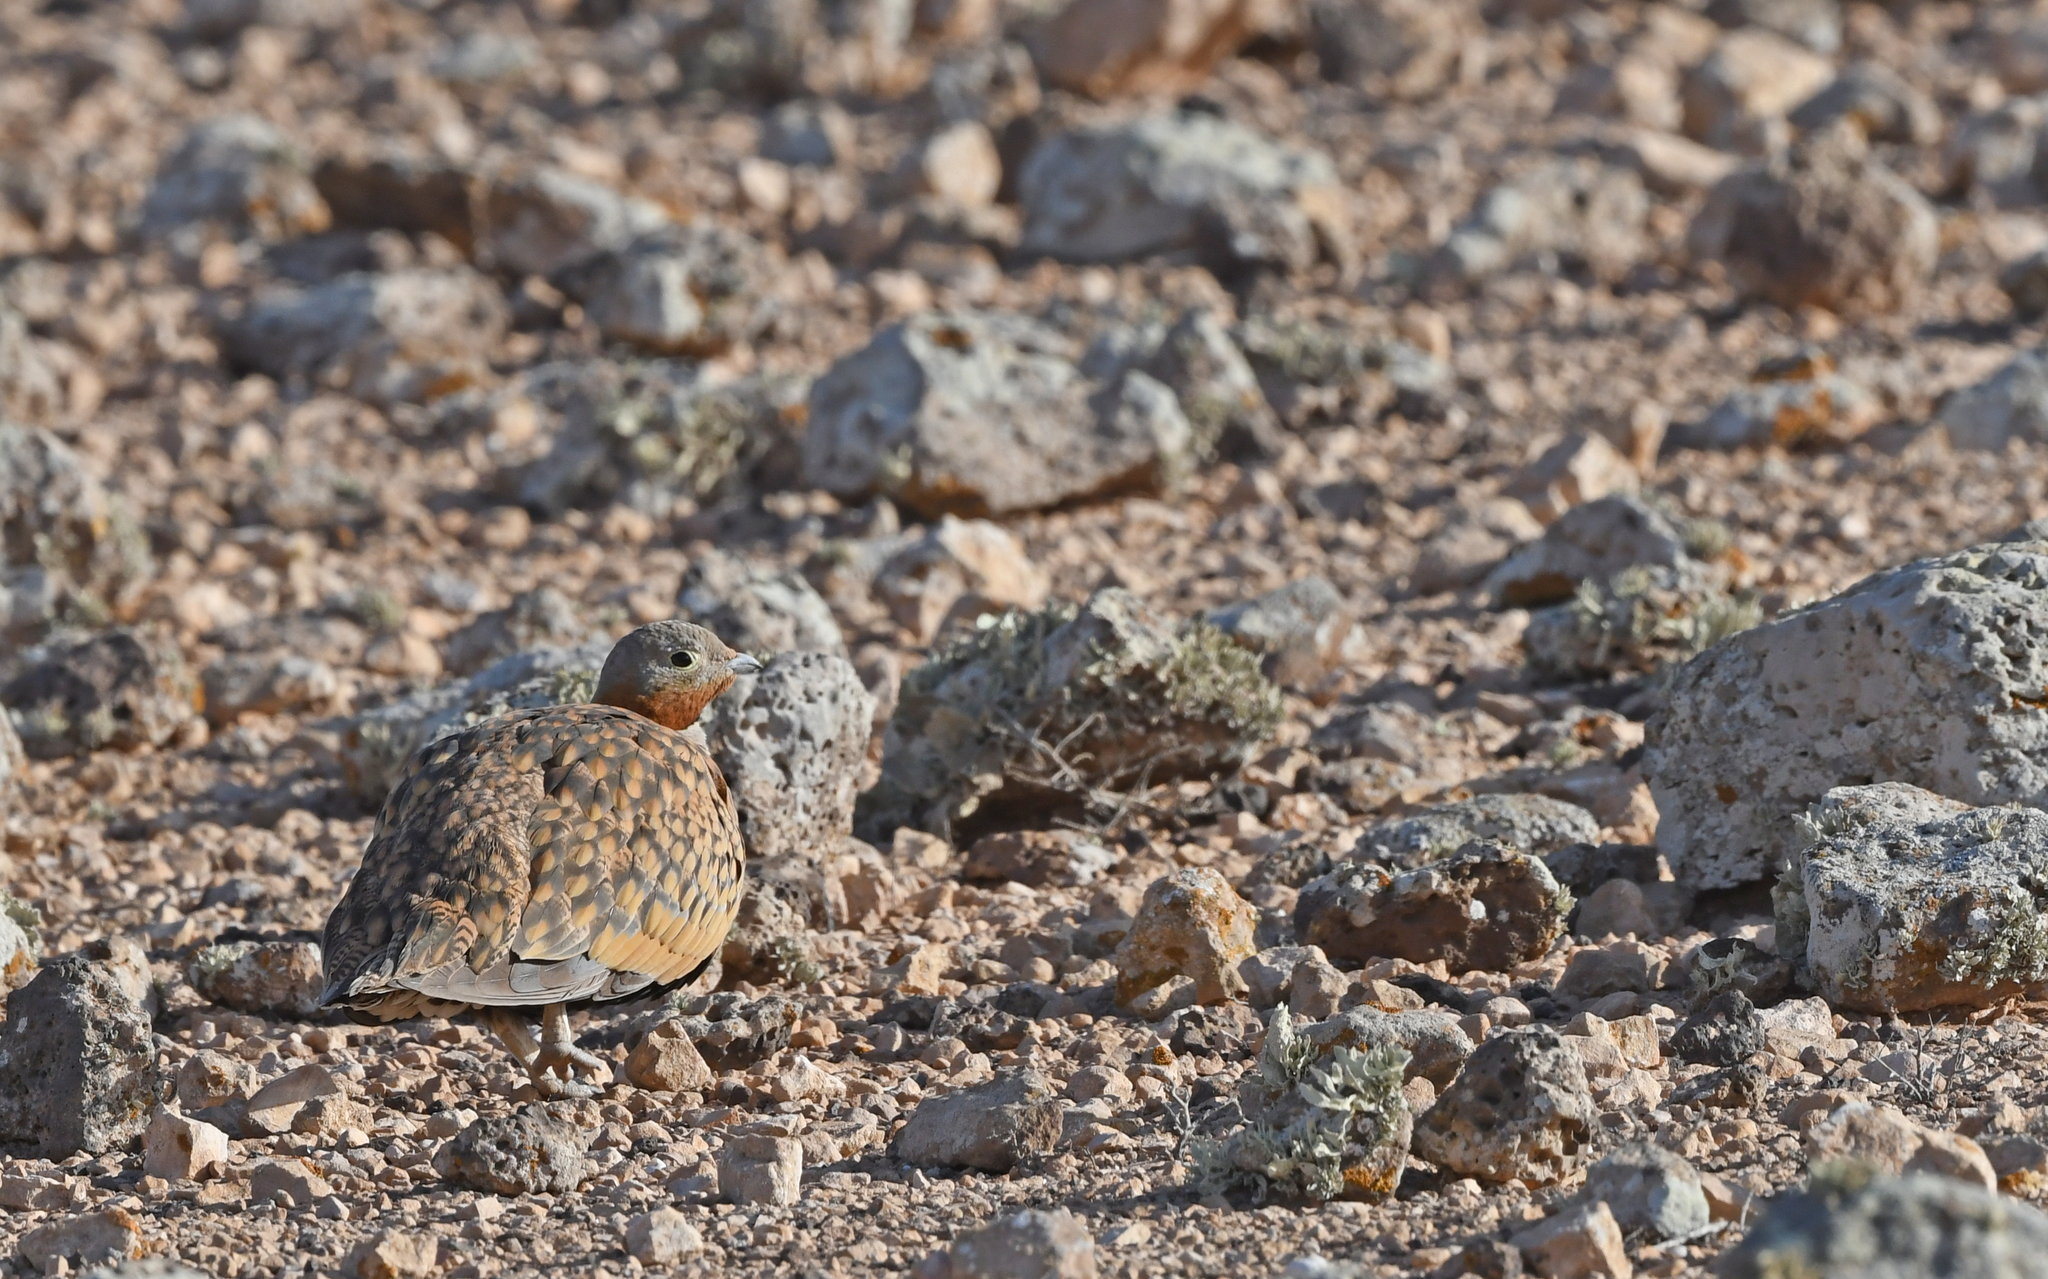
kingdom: Animalia
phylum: Chordata
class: Aves
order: Pteroclidiformes
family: Pteroclididae
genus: Pterocles
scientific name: Pterocles orientalis
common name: Black-bellied sandgrouse
